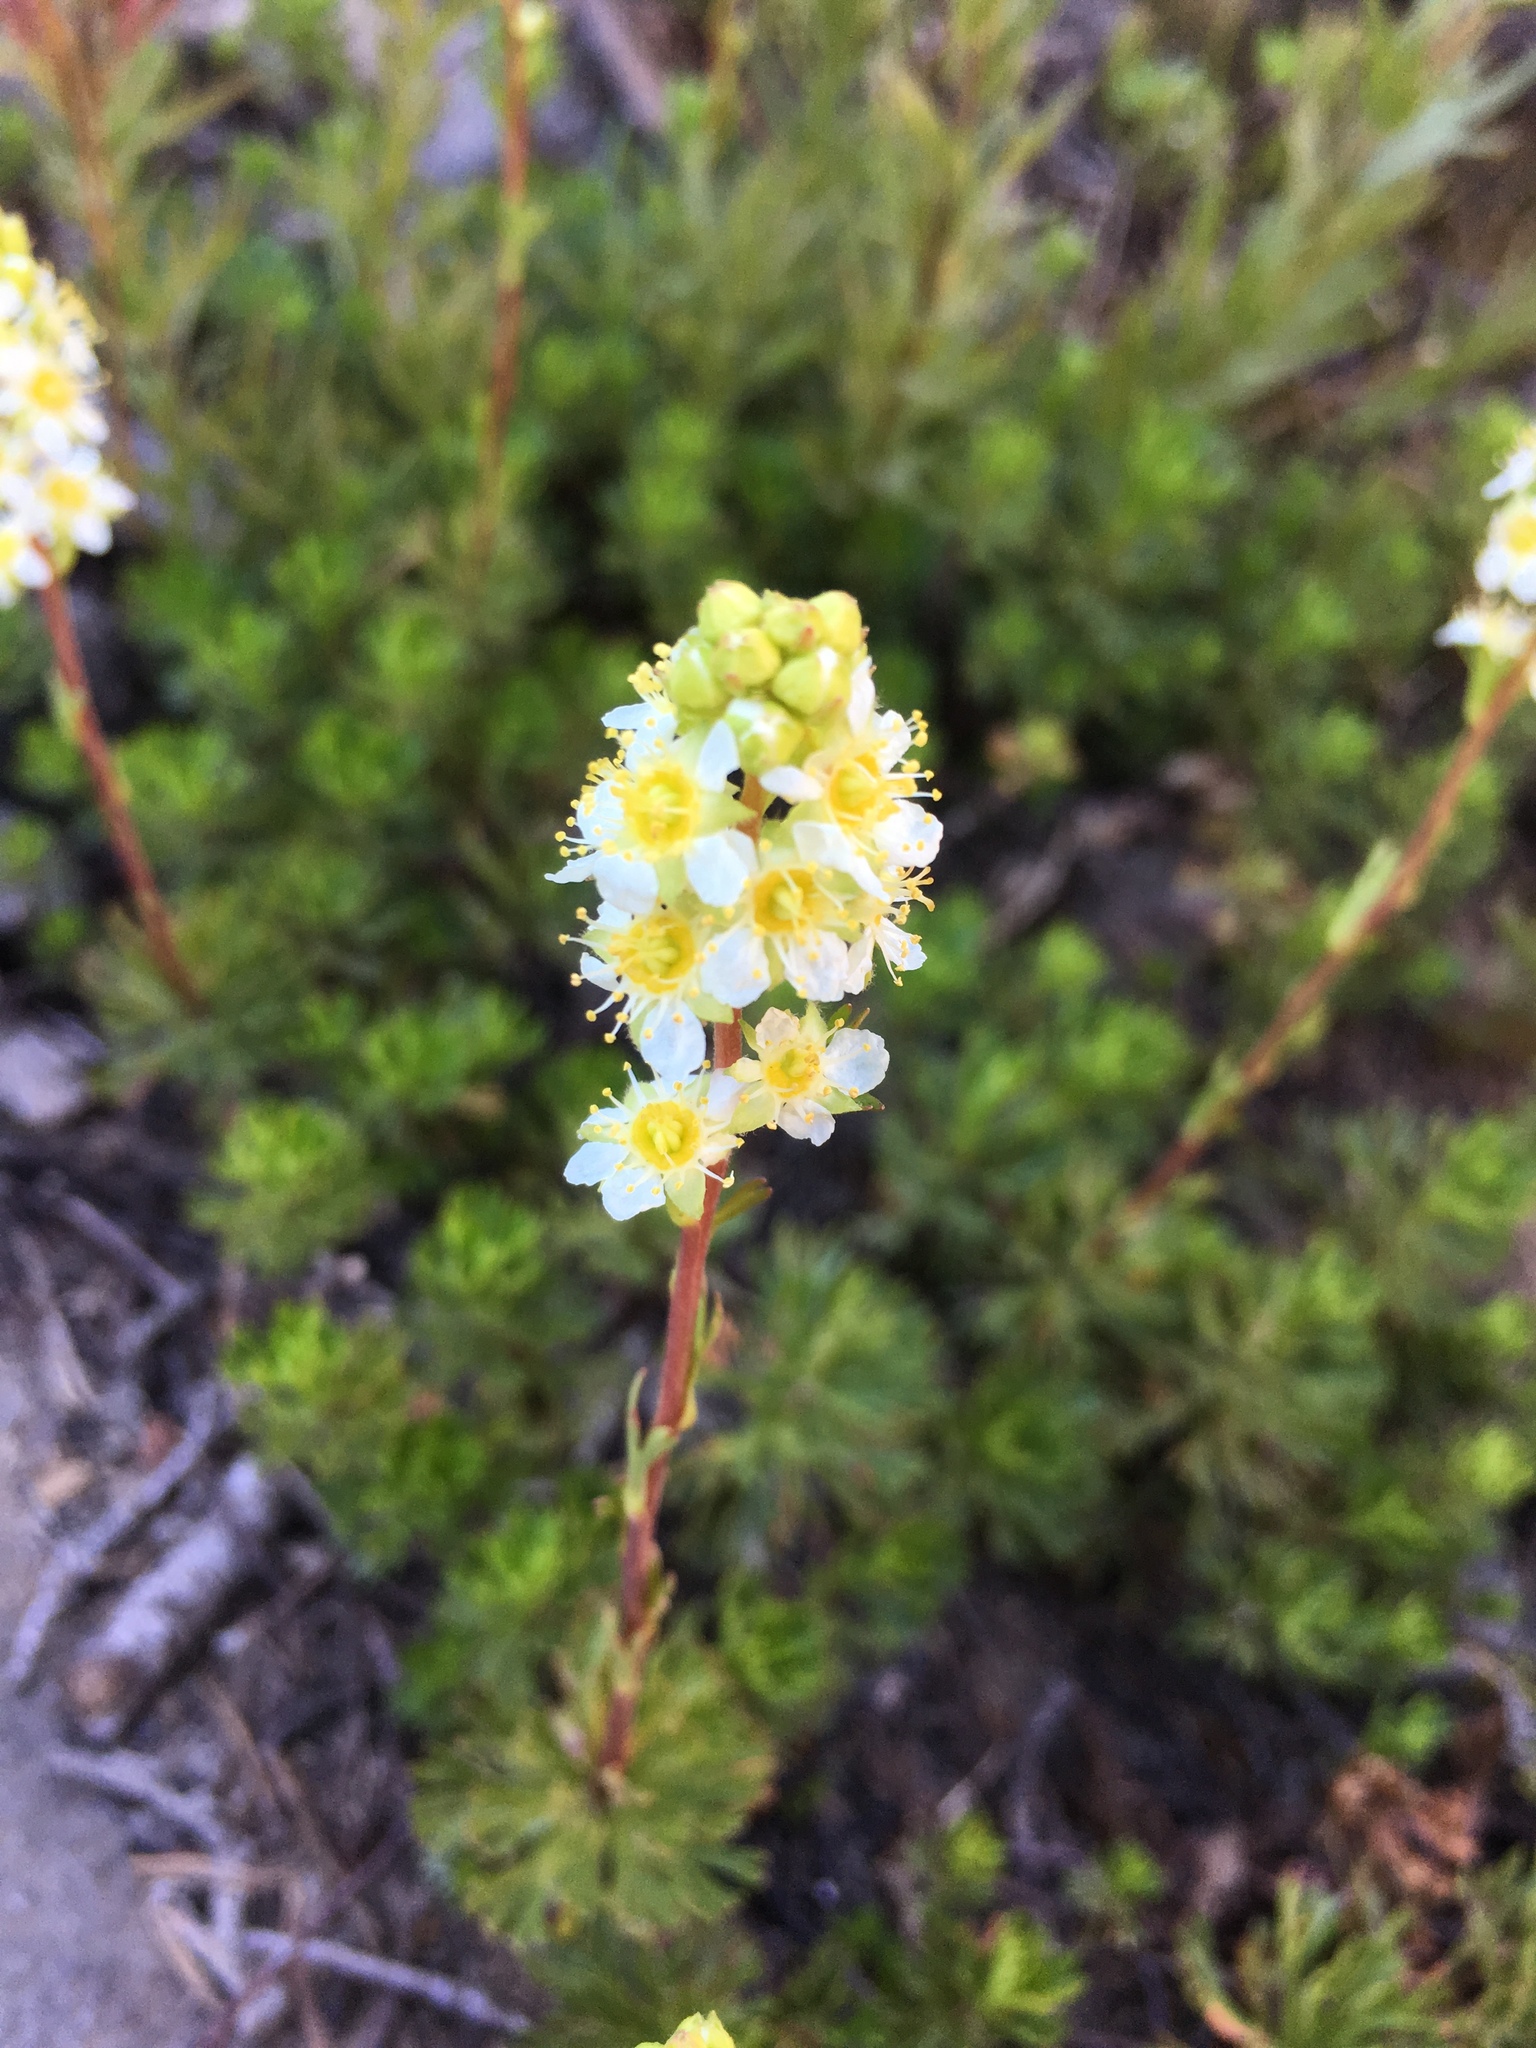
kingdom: Plantae
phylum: Tracheophyta
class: Magnoliopsida
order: Rosales
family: Rosaceae
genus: Luetkea
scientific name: Luetkea pectinata
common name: Partridgefoot
